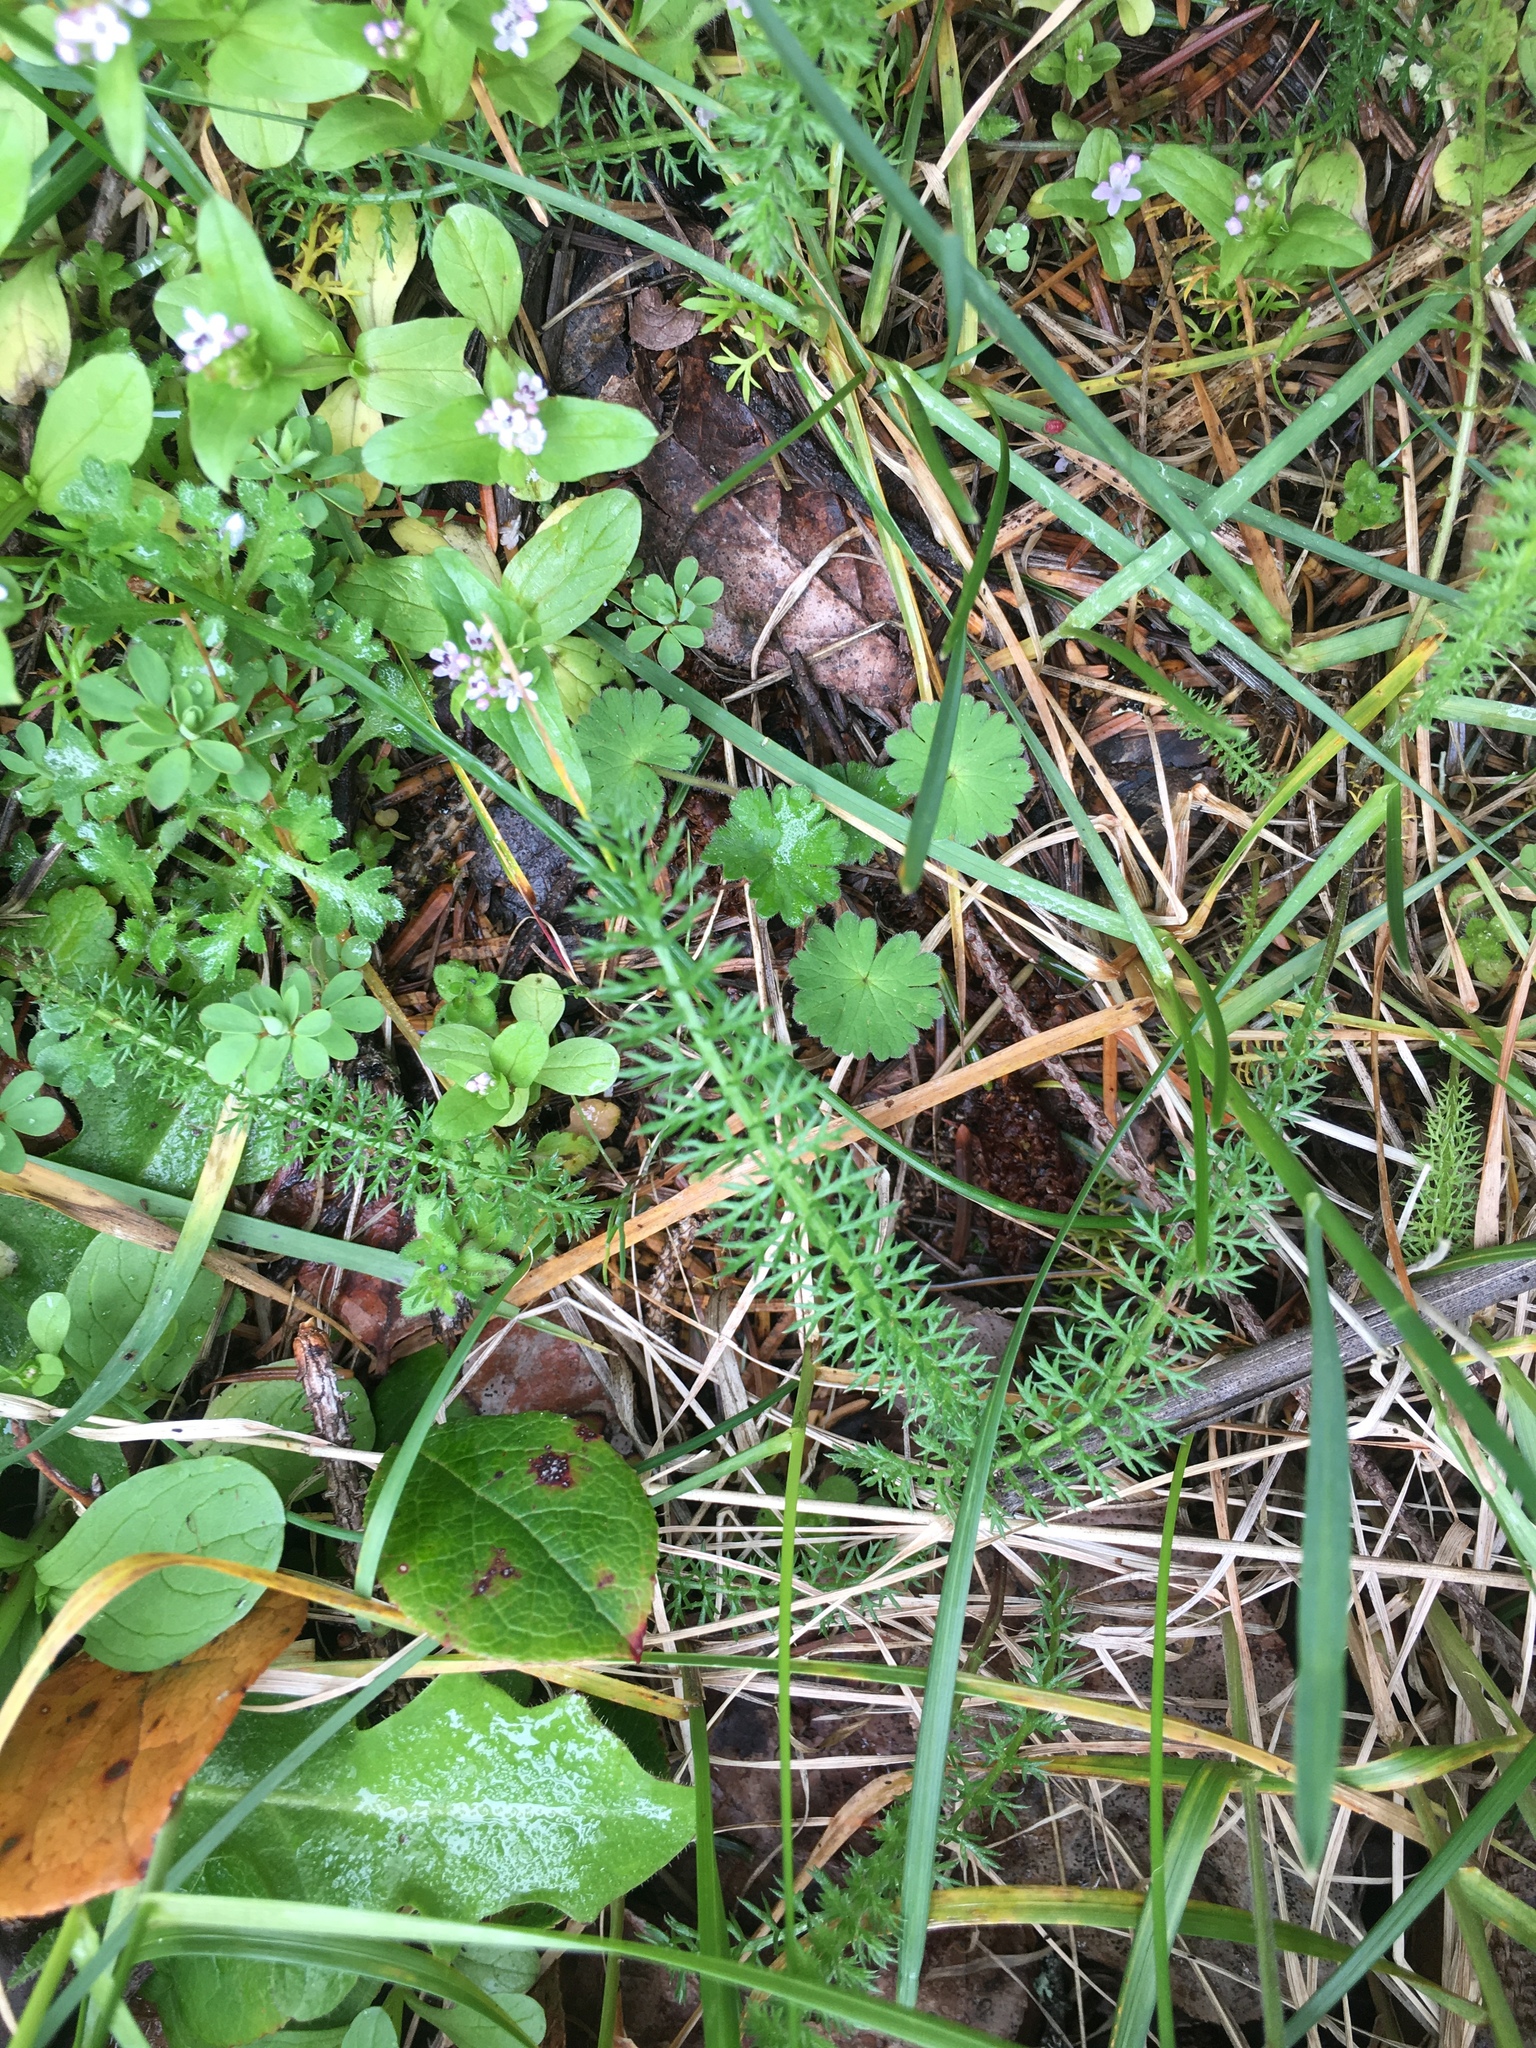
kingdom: Plantae
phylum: Tracheophyta
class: Magnoliopsida
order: Asterales
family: Asteraceae
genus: Achillea
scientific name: Achillea millefolium
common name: Yarrow
